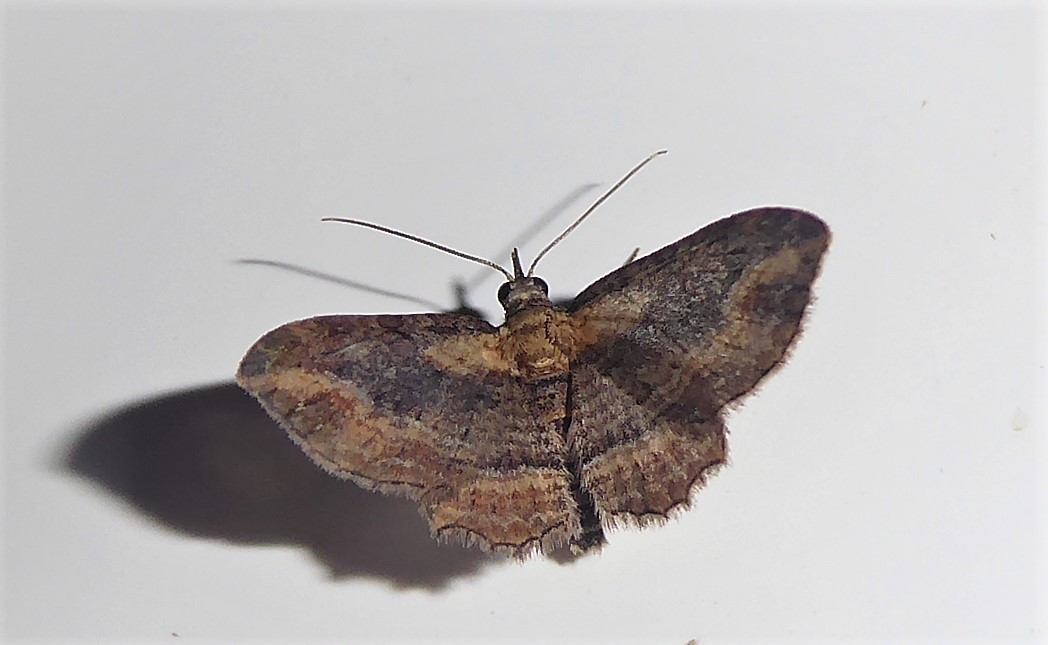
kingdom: Animalia
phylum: Arthropoda
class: Insecta
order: Lepidoptera
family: Geometridae
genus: Chloroclystis
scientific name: Chloroclystis filata
